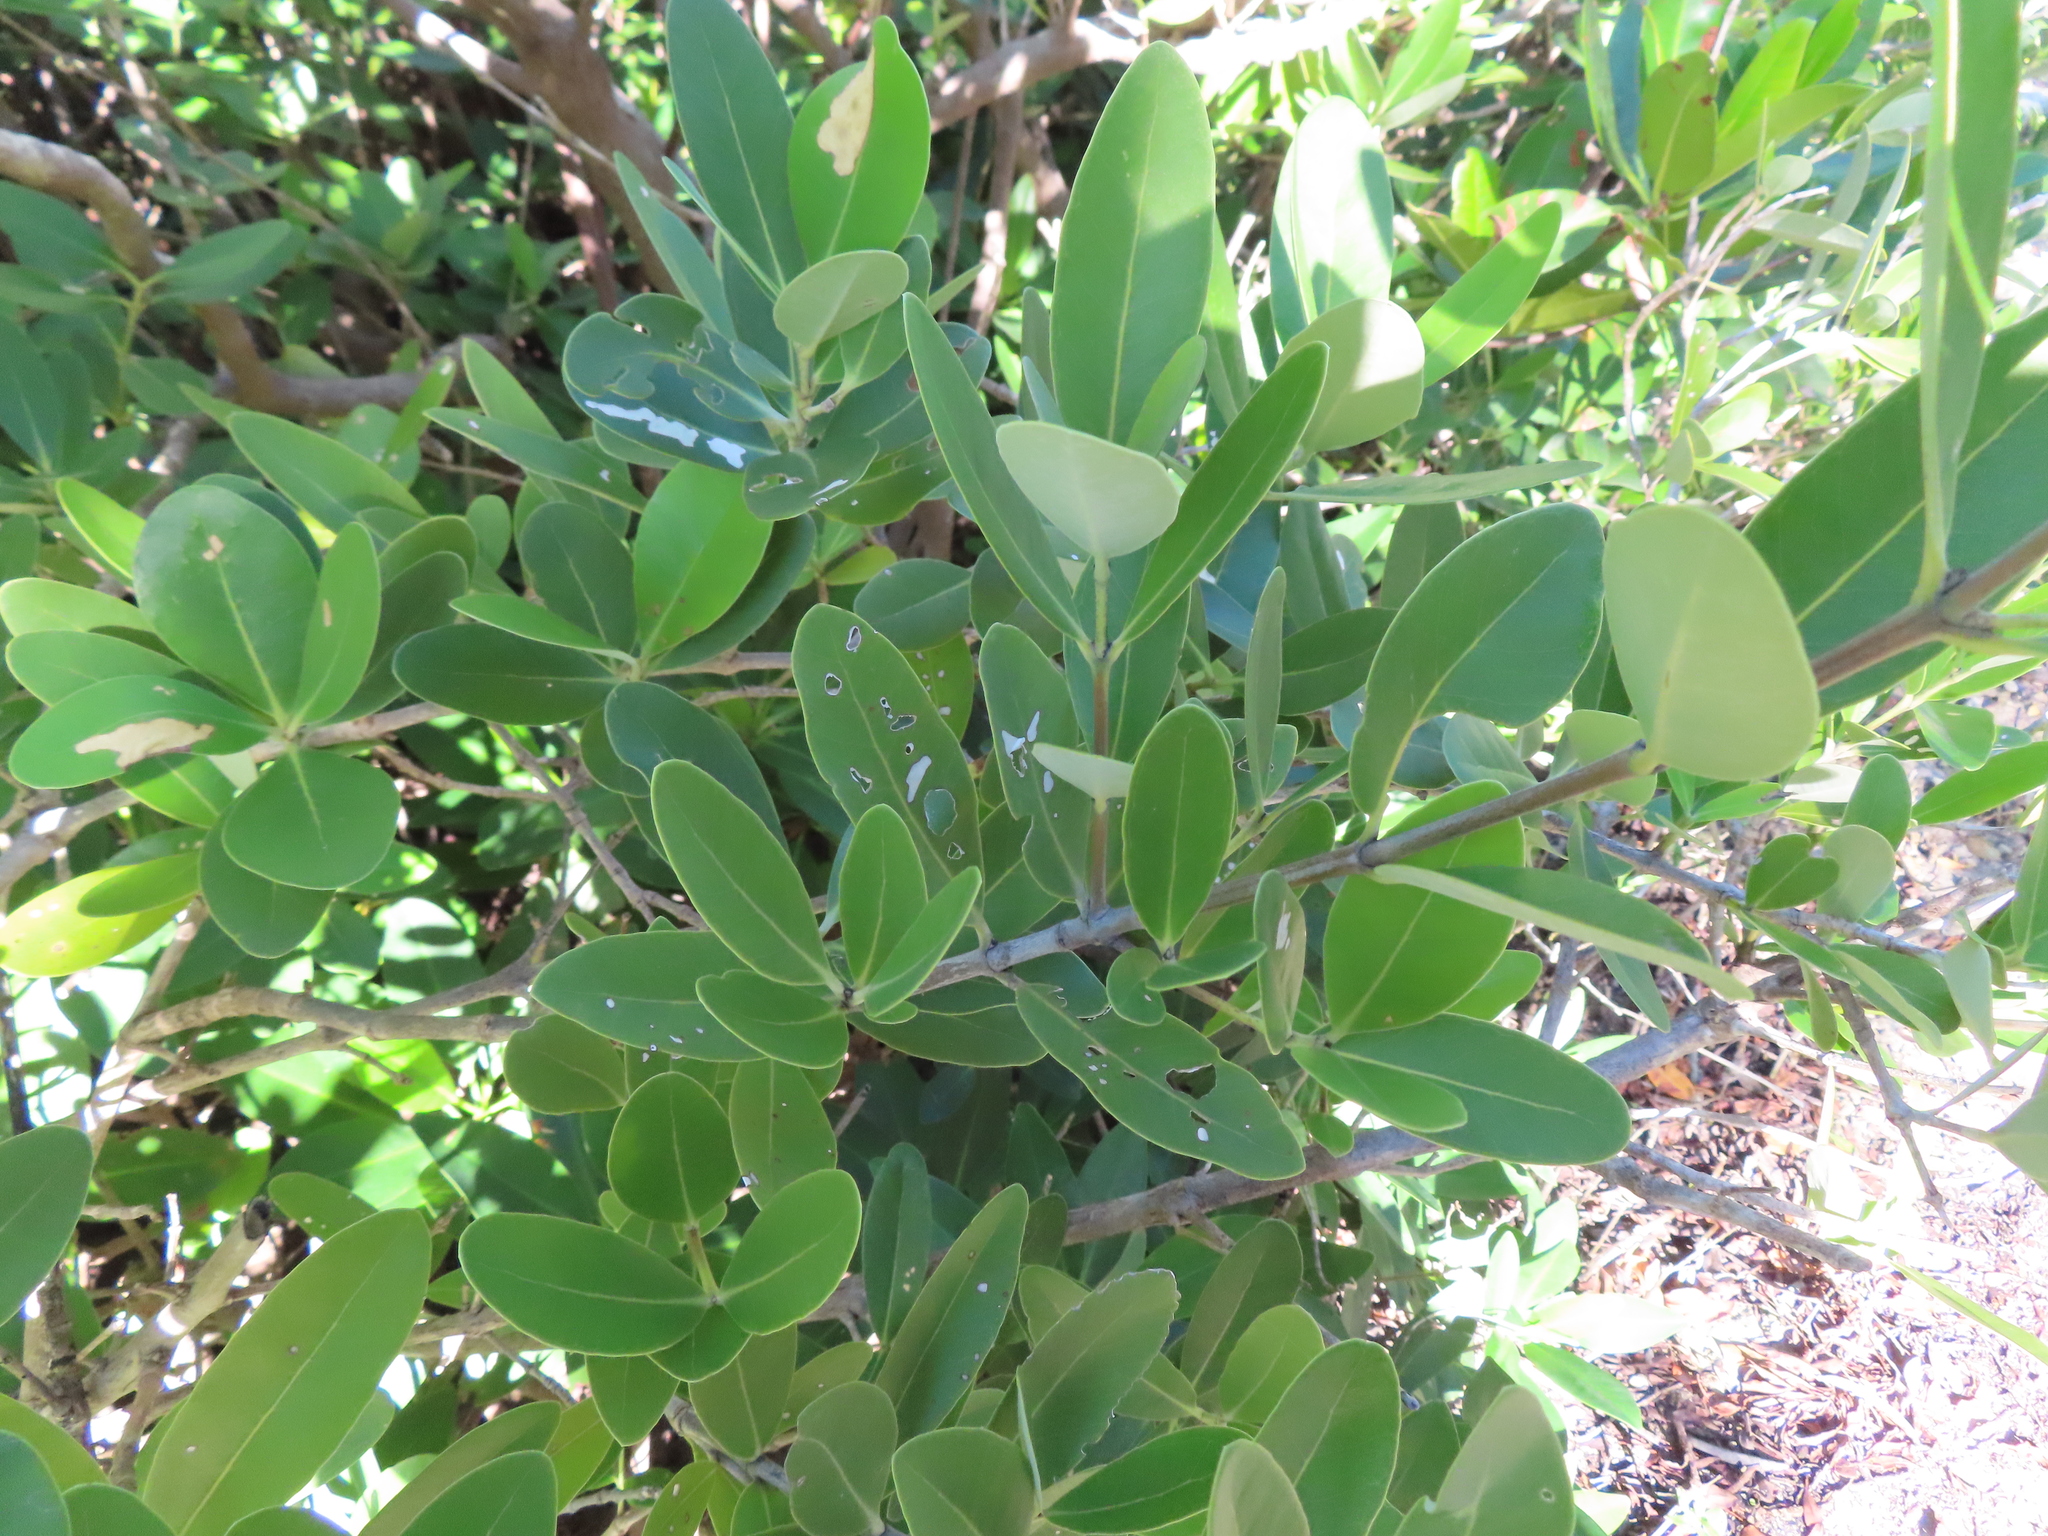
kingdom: Plantae
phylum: Tracheophyta
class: Magnoliopsida
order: Lamiales
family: Acanthaceae
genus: Avicennia
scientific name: Avicennia germinans
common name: Black mangrove
